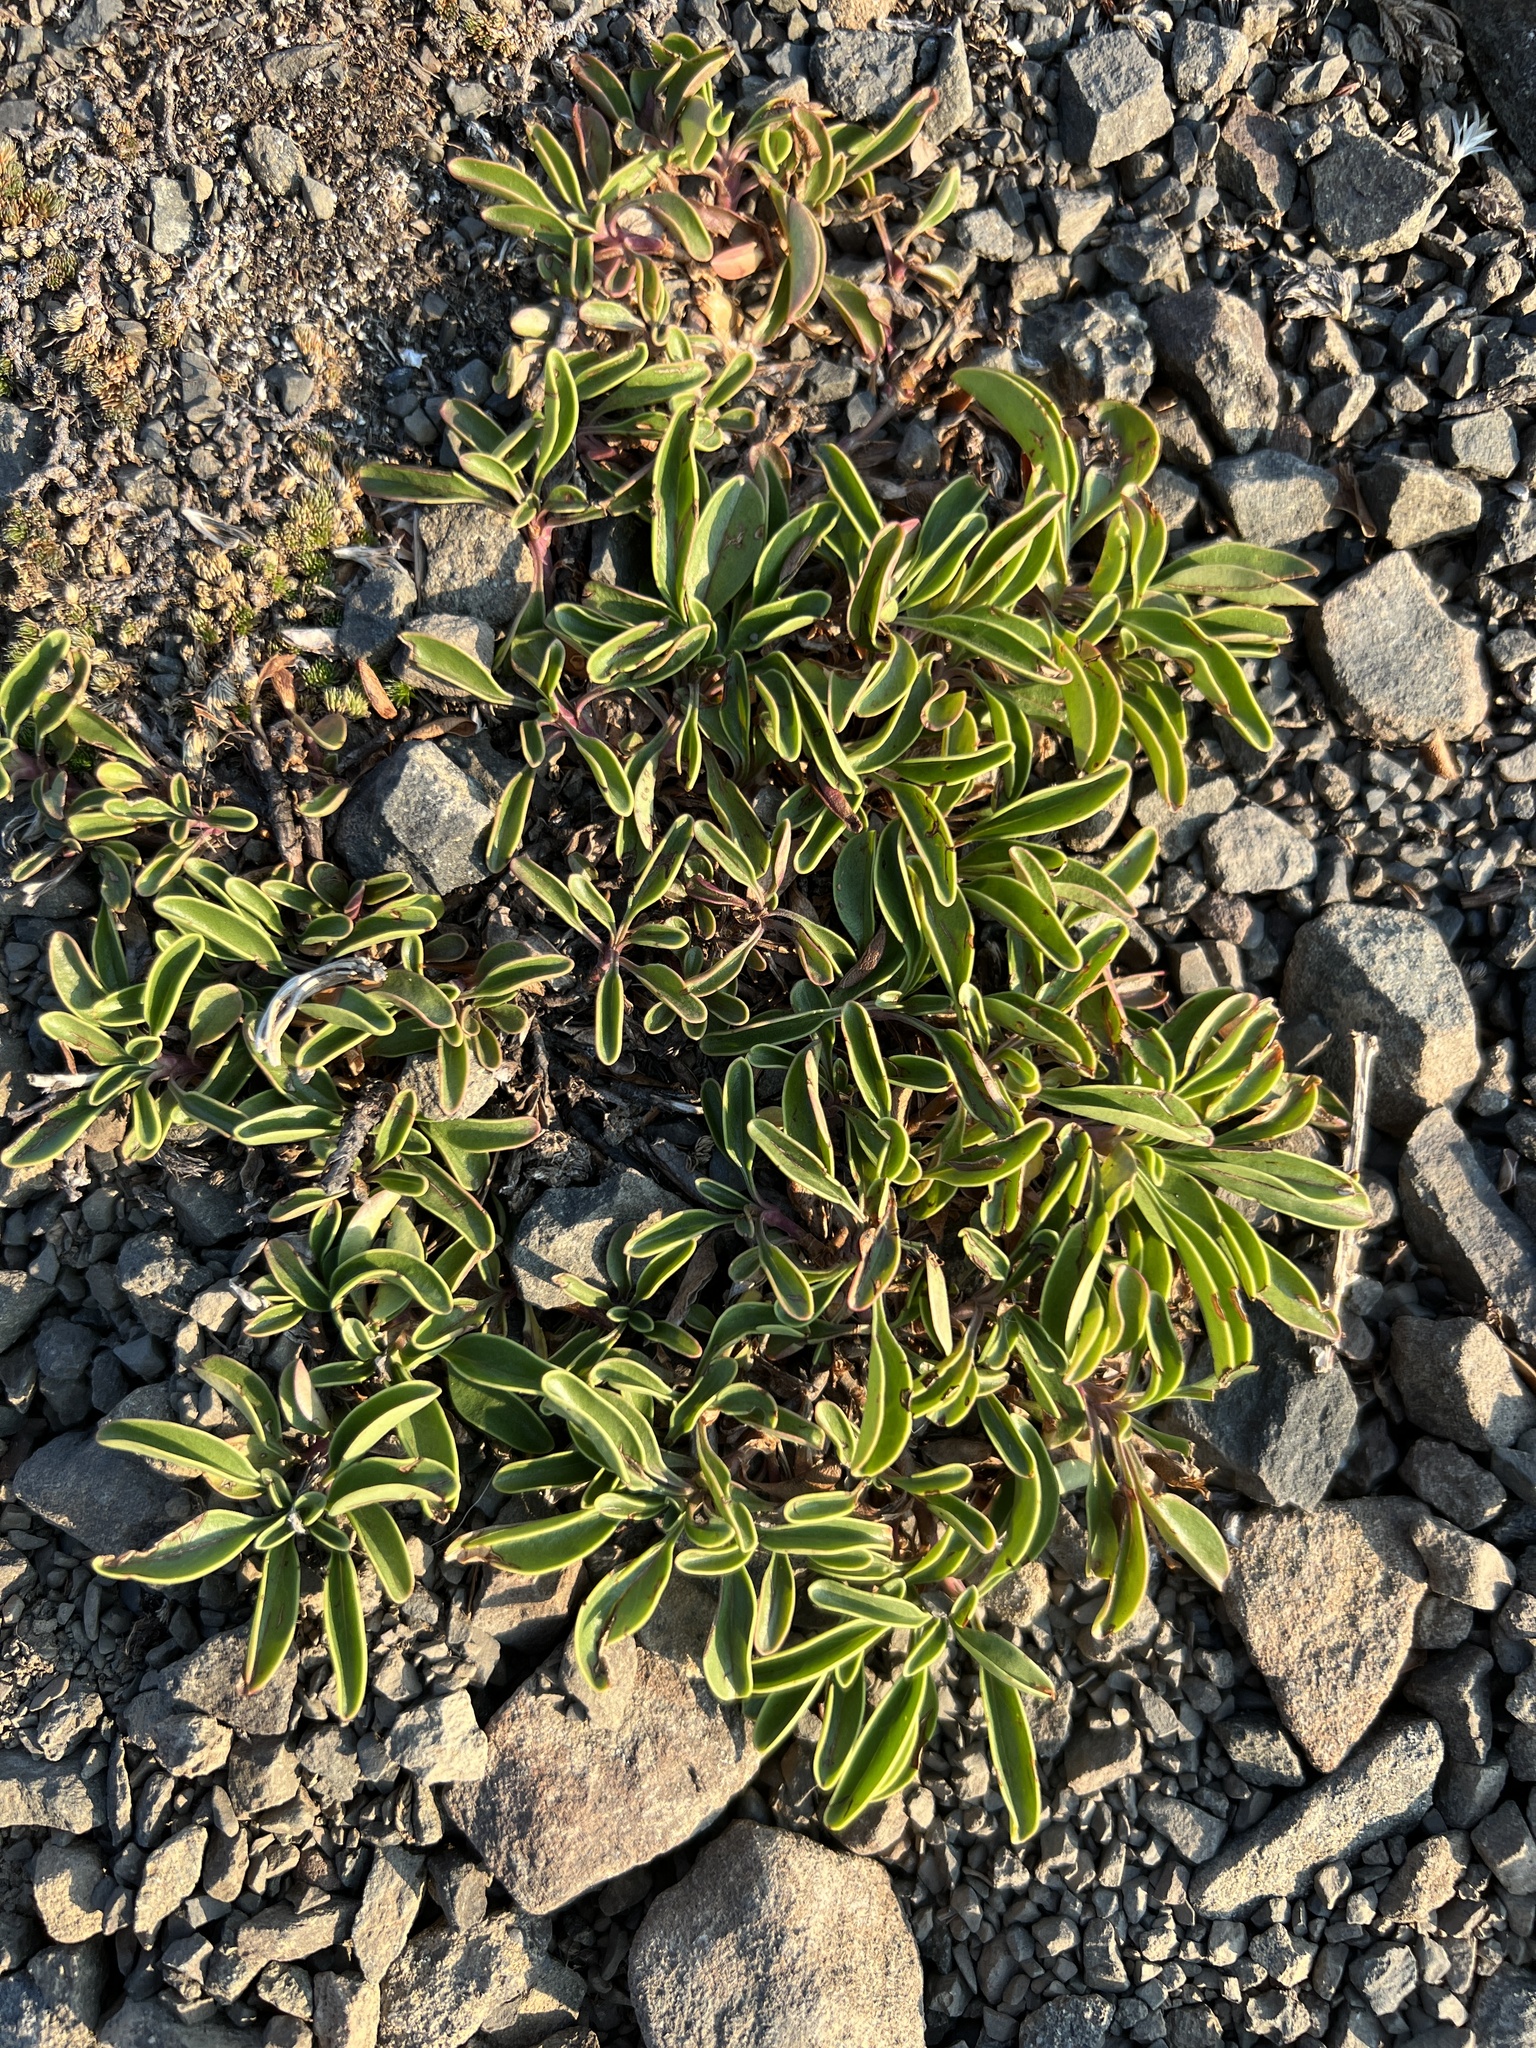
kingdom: Plantae
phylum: Tracheophyta
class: Magnoliopsida
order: Lamiales
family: Plantaginaceae
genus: Penstemon
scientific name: Penstemon procerus
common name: Small-flower penstemon
